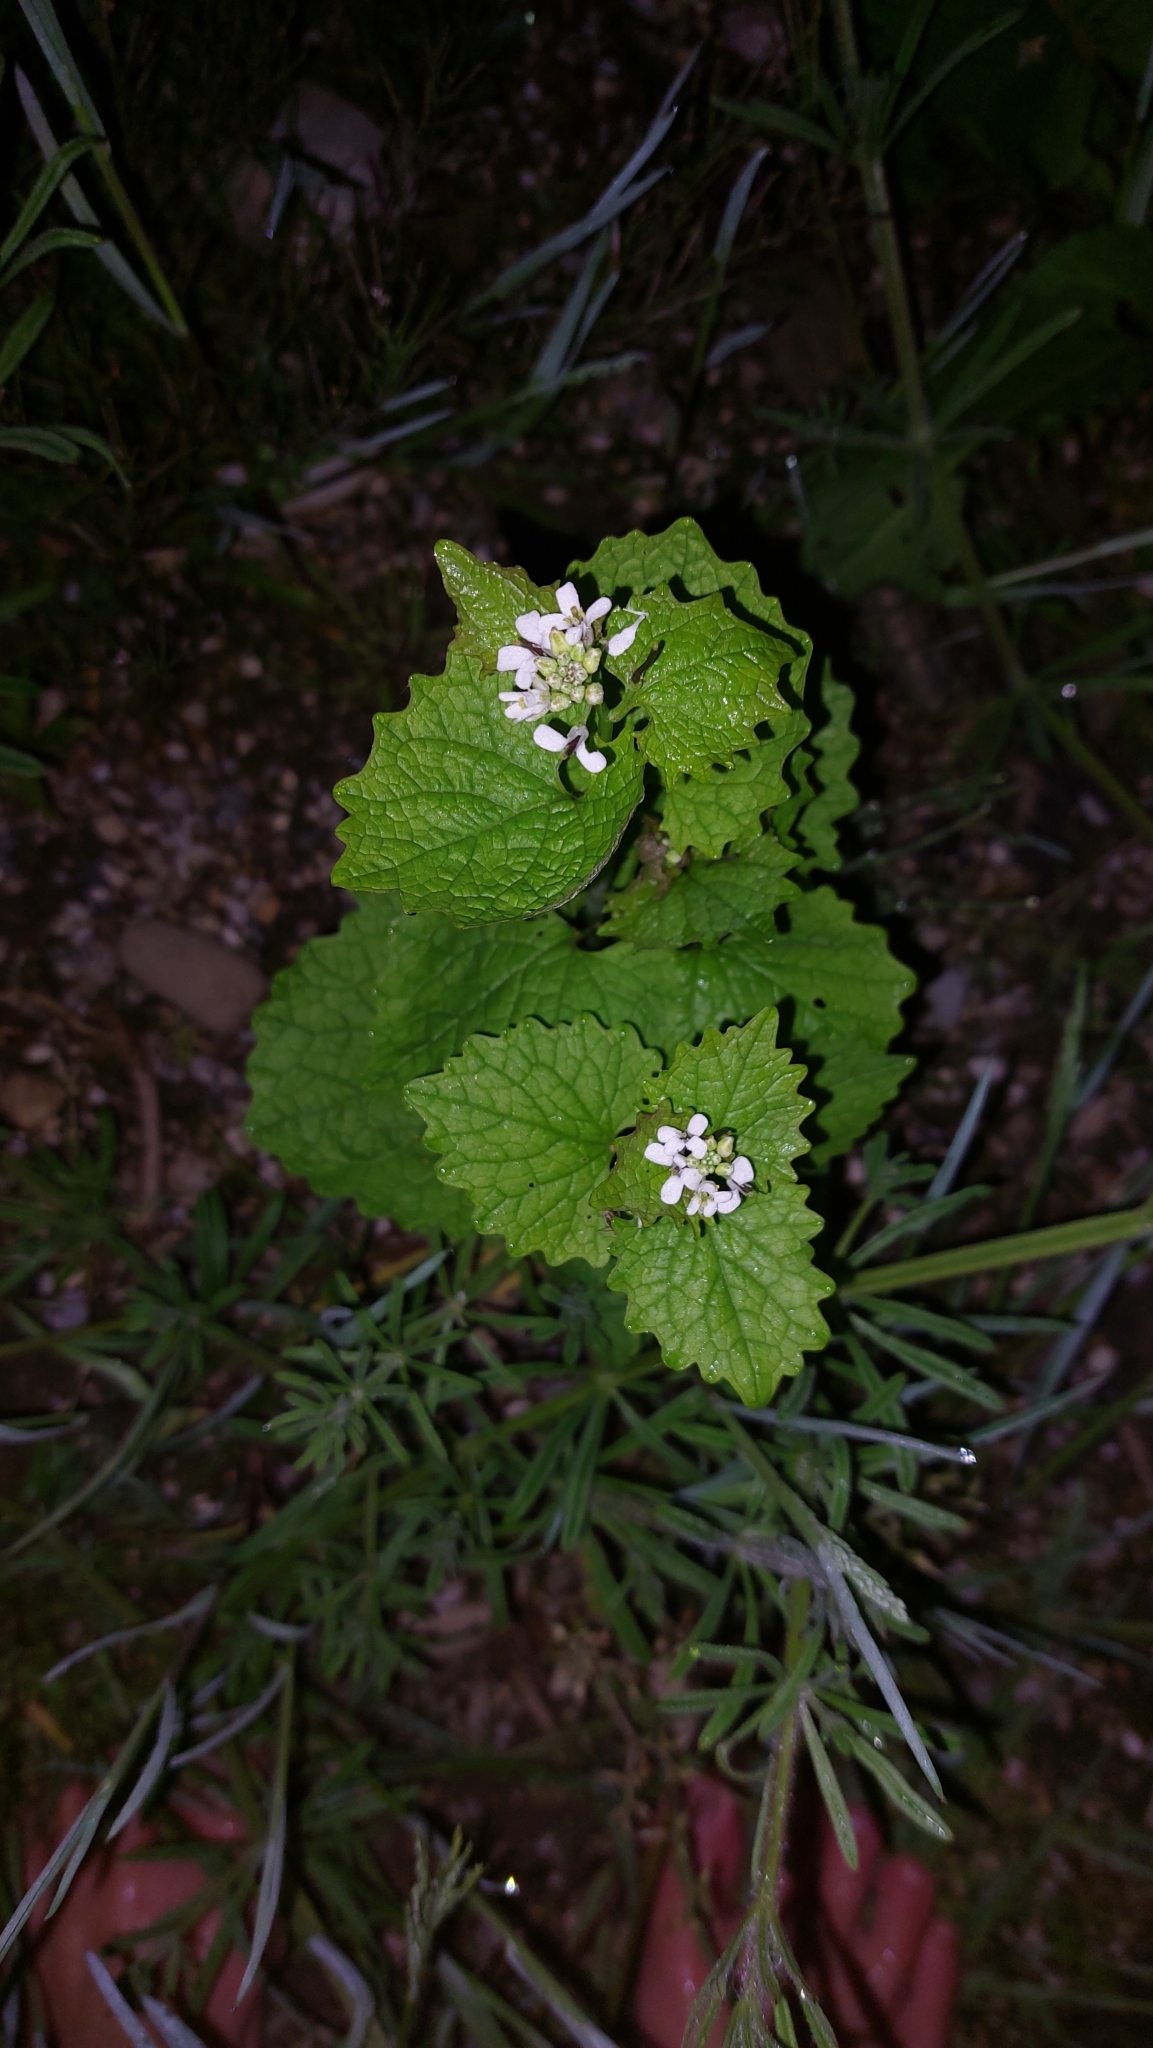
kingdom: Plantae
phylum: Tracheophyta
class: Magnoliopsida
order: Brassicales
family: Brassicaceae
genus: Alliaria
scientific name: Alliaria petiolata
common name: Garlic mustard
